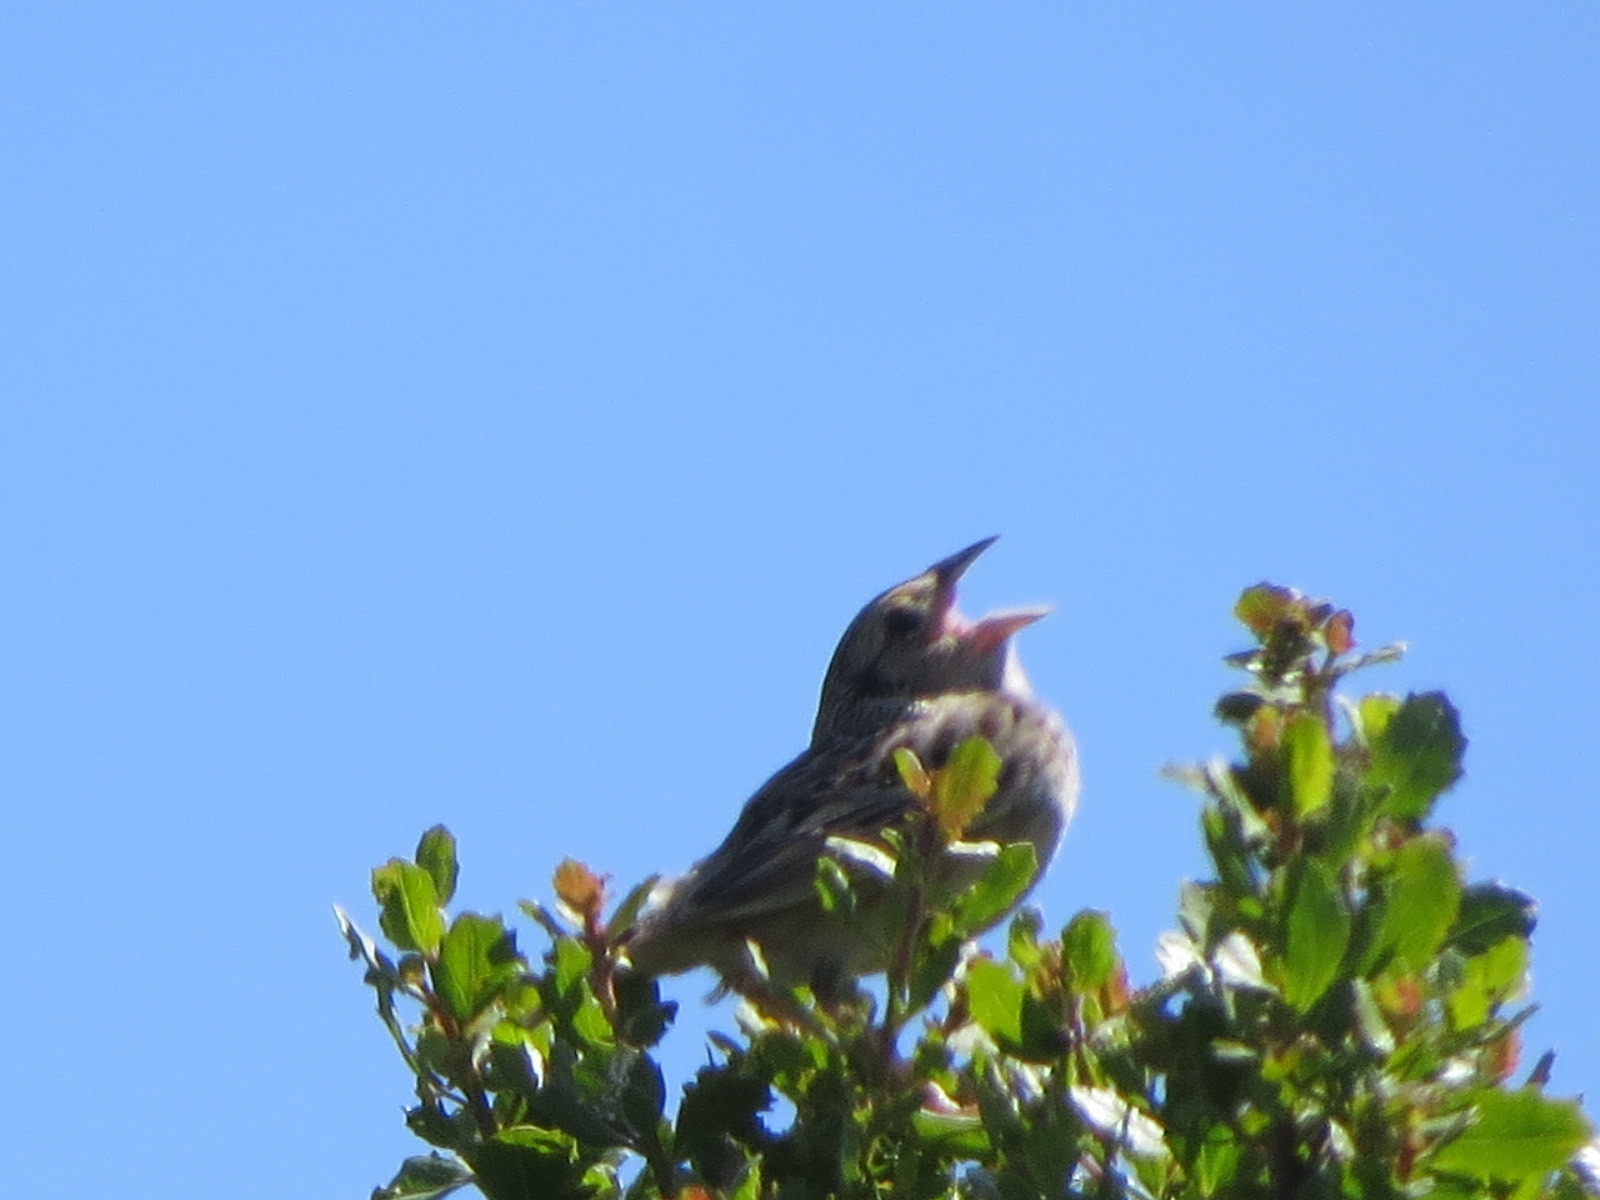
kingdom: Animalia
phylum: Chordata
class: Aves
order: Passeriformes
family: Passerellidae
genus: Ammodramus
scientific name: Ammodramus savannarum
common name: Grasshopper sparrow
